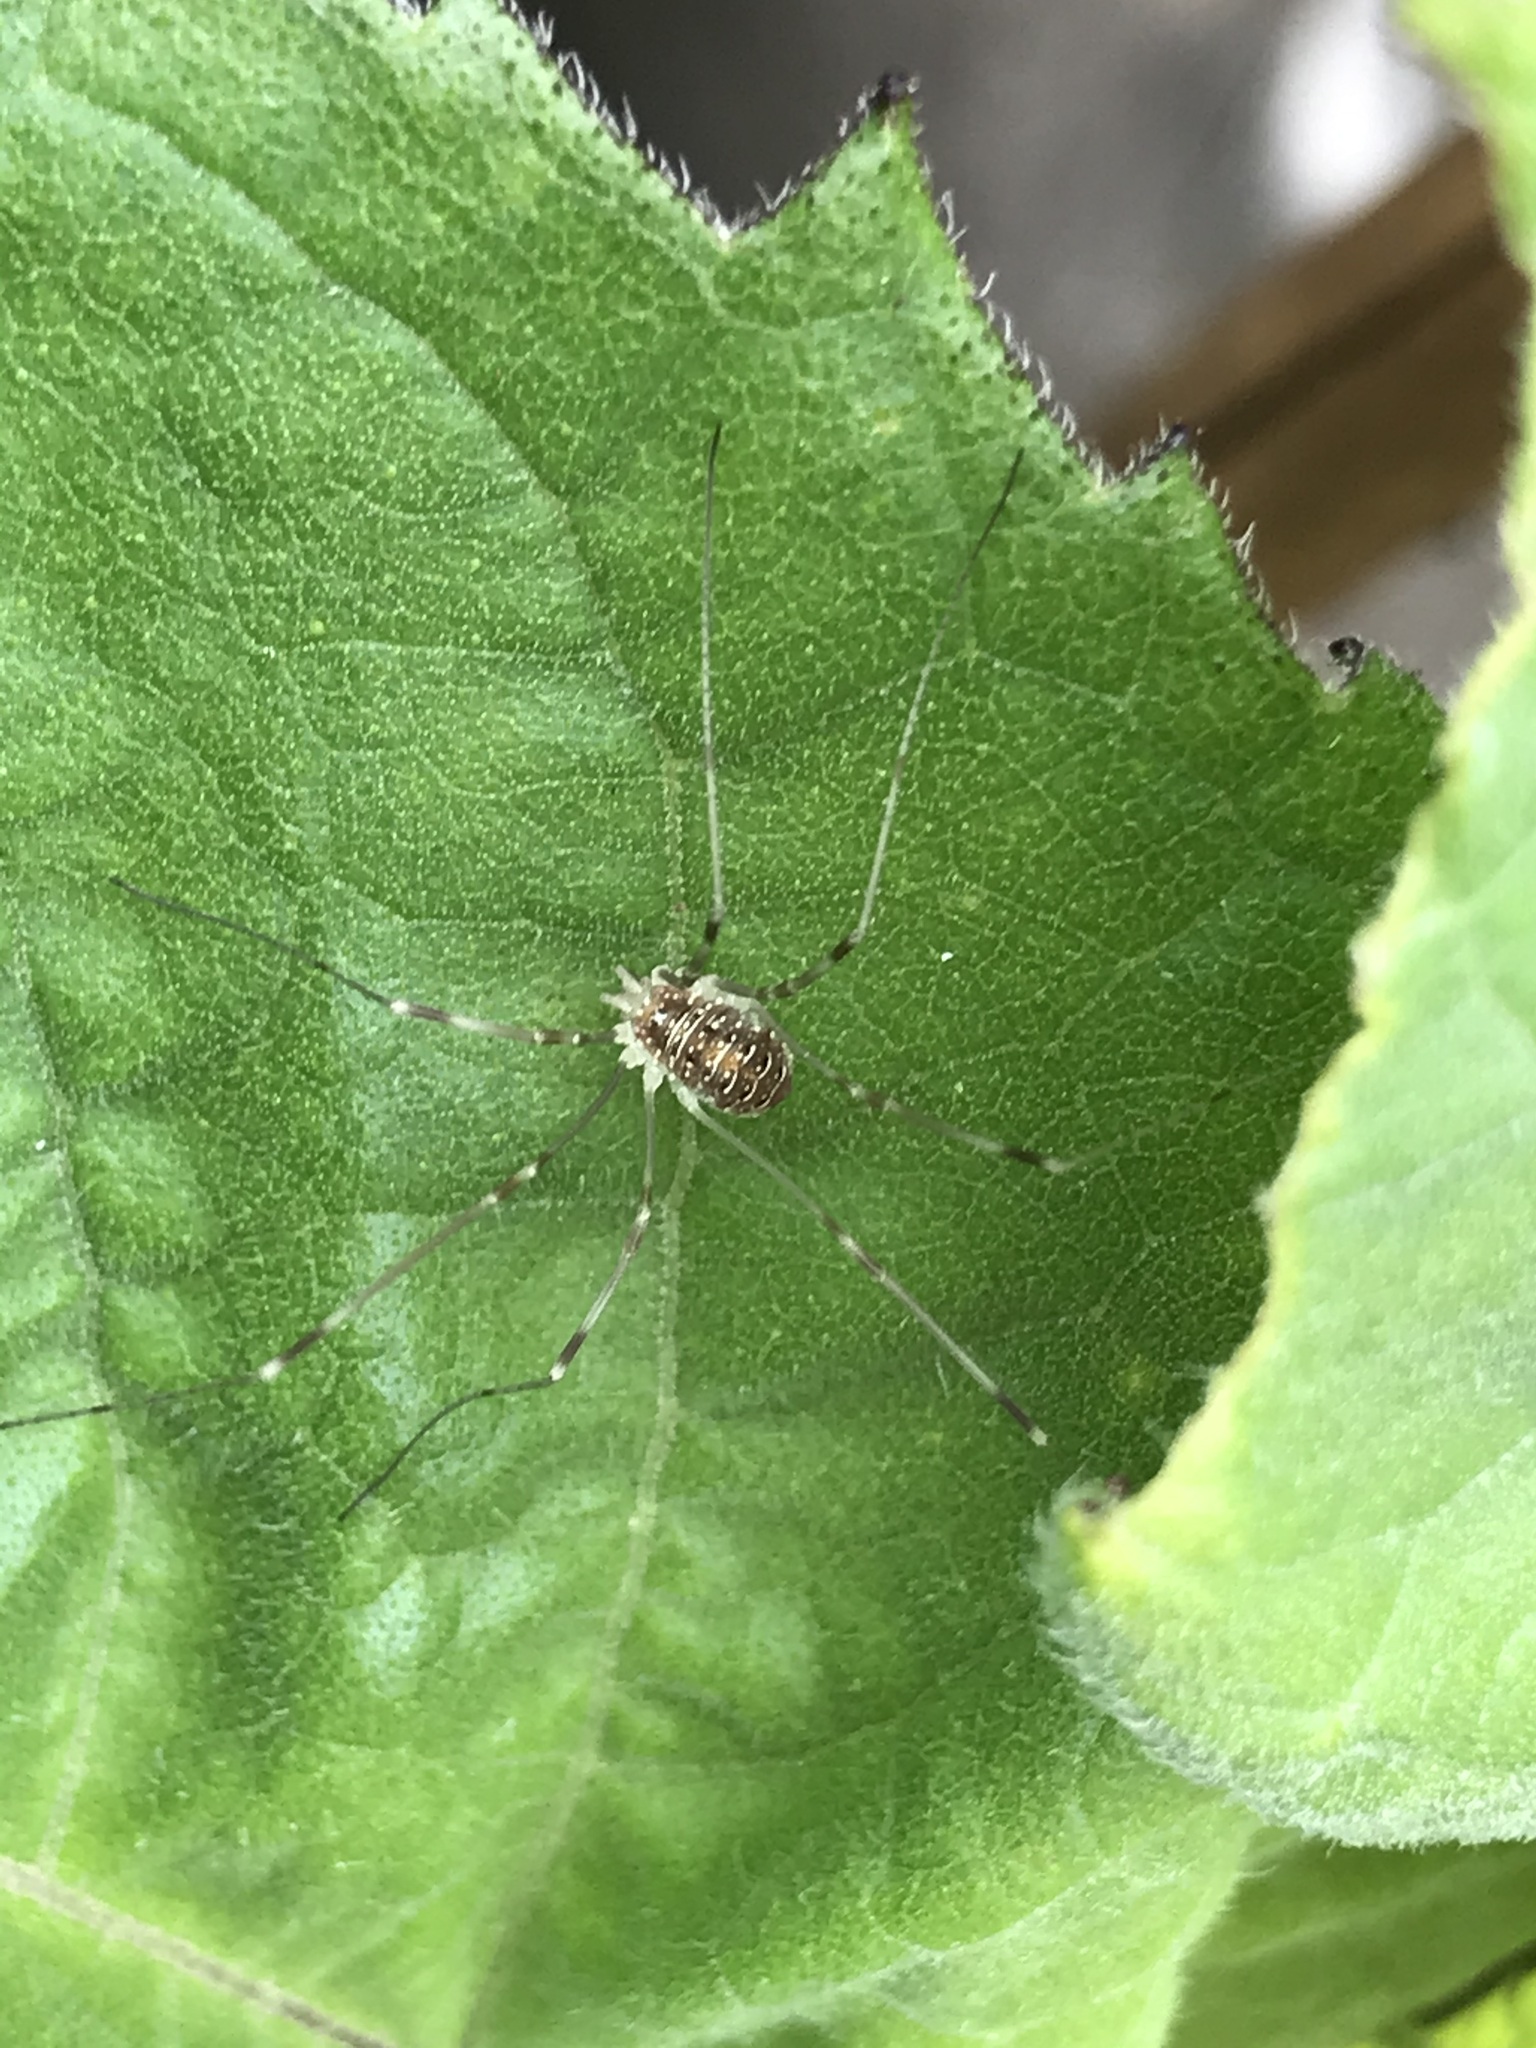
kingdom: Animalia
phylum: Arthropoda
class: Arachnida
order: Opiliones
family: Phalangiidae
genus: Opilio
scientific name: Opilio canestrinii
